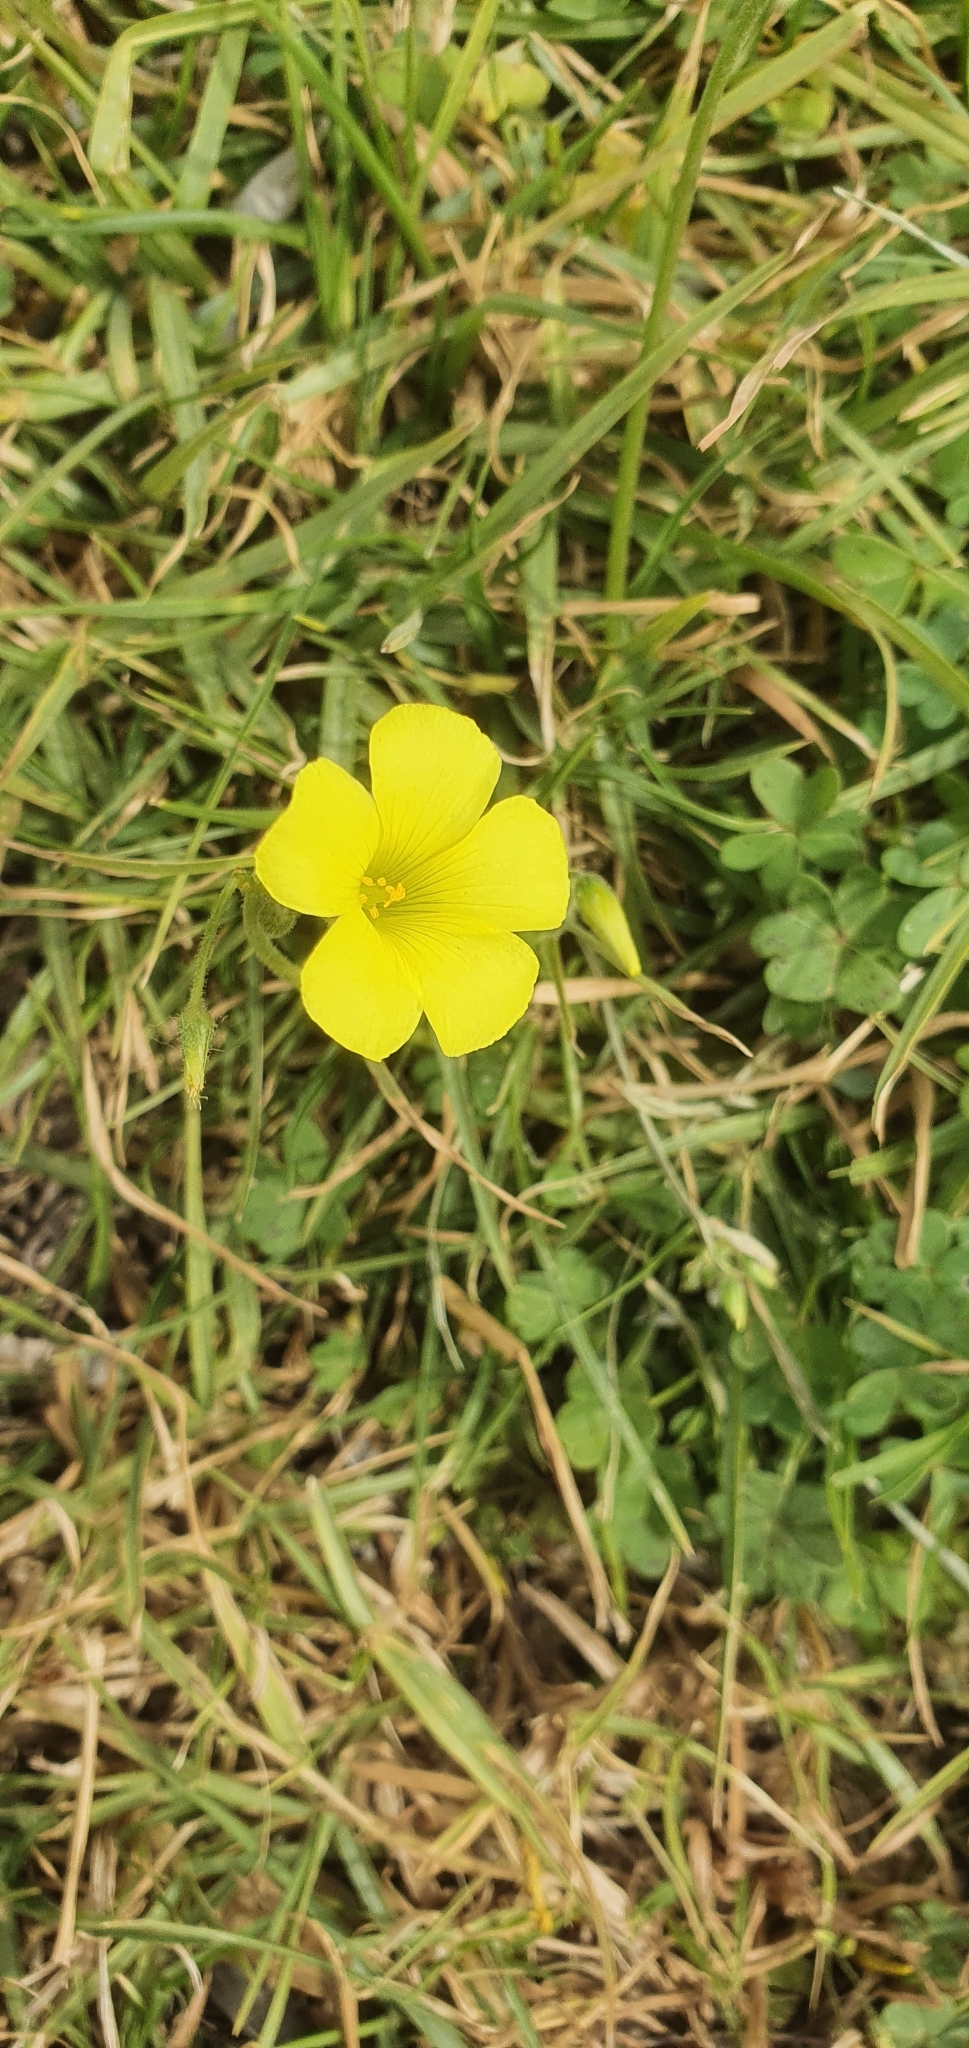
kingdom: Plantae
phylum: Tracheophyta
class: Magnoliopsida
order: Oxalidales
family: Oxalidaceae
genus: Oxalis
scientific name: Oxalis pes-caprae
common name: Bermuda-buttercup
